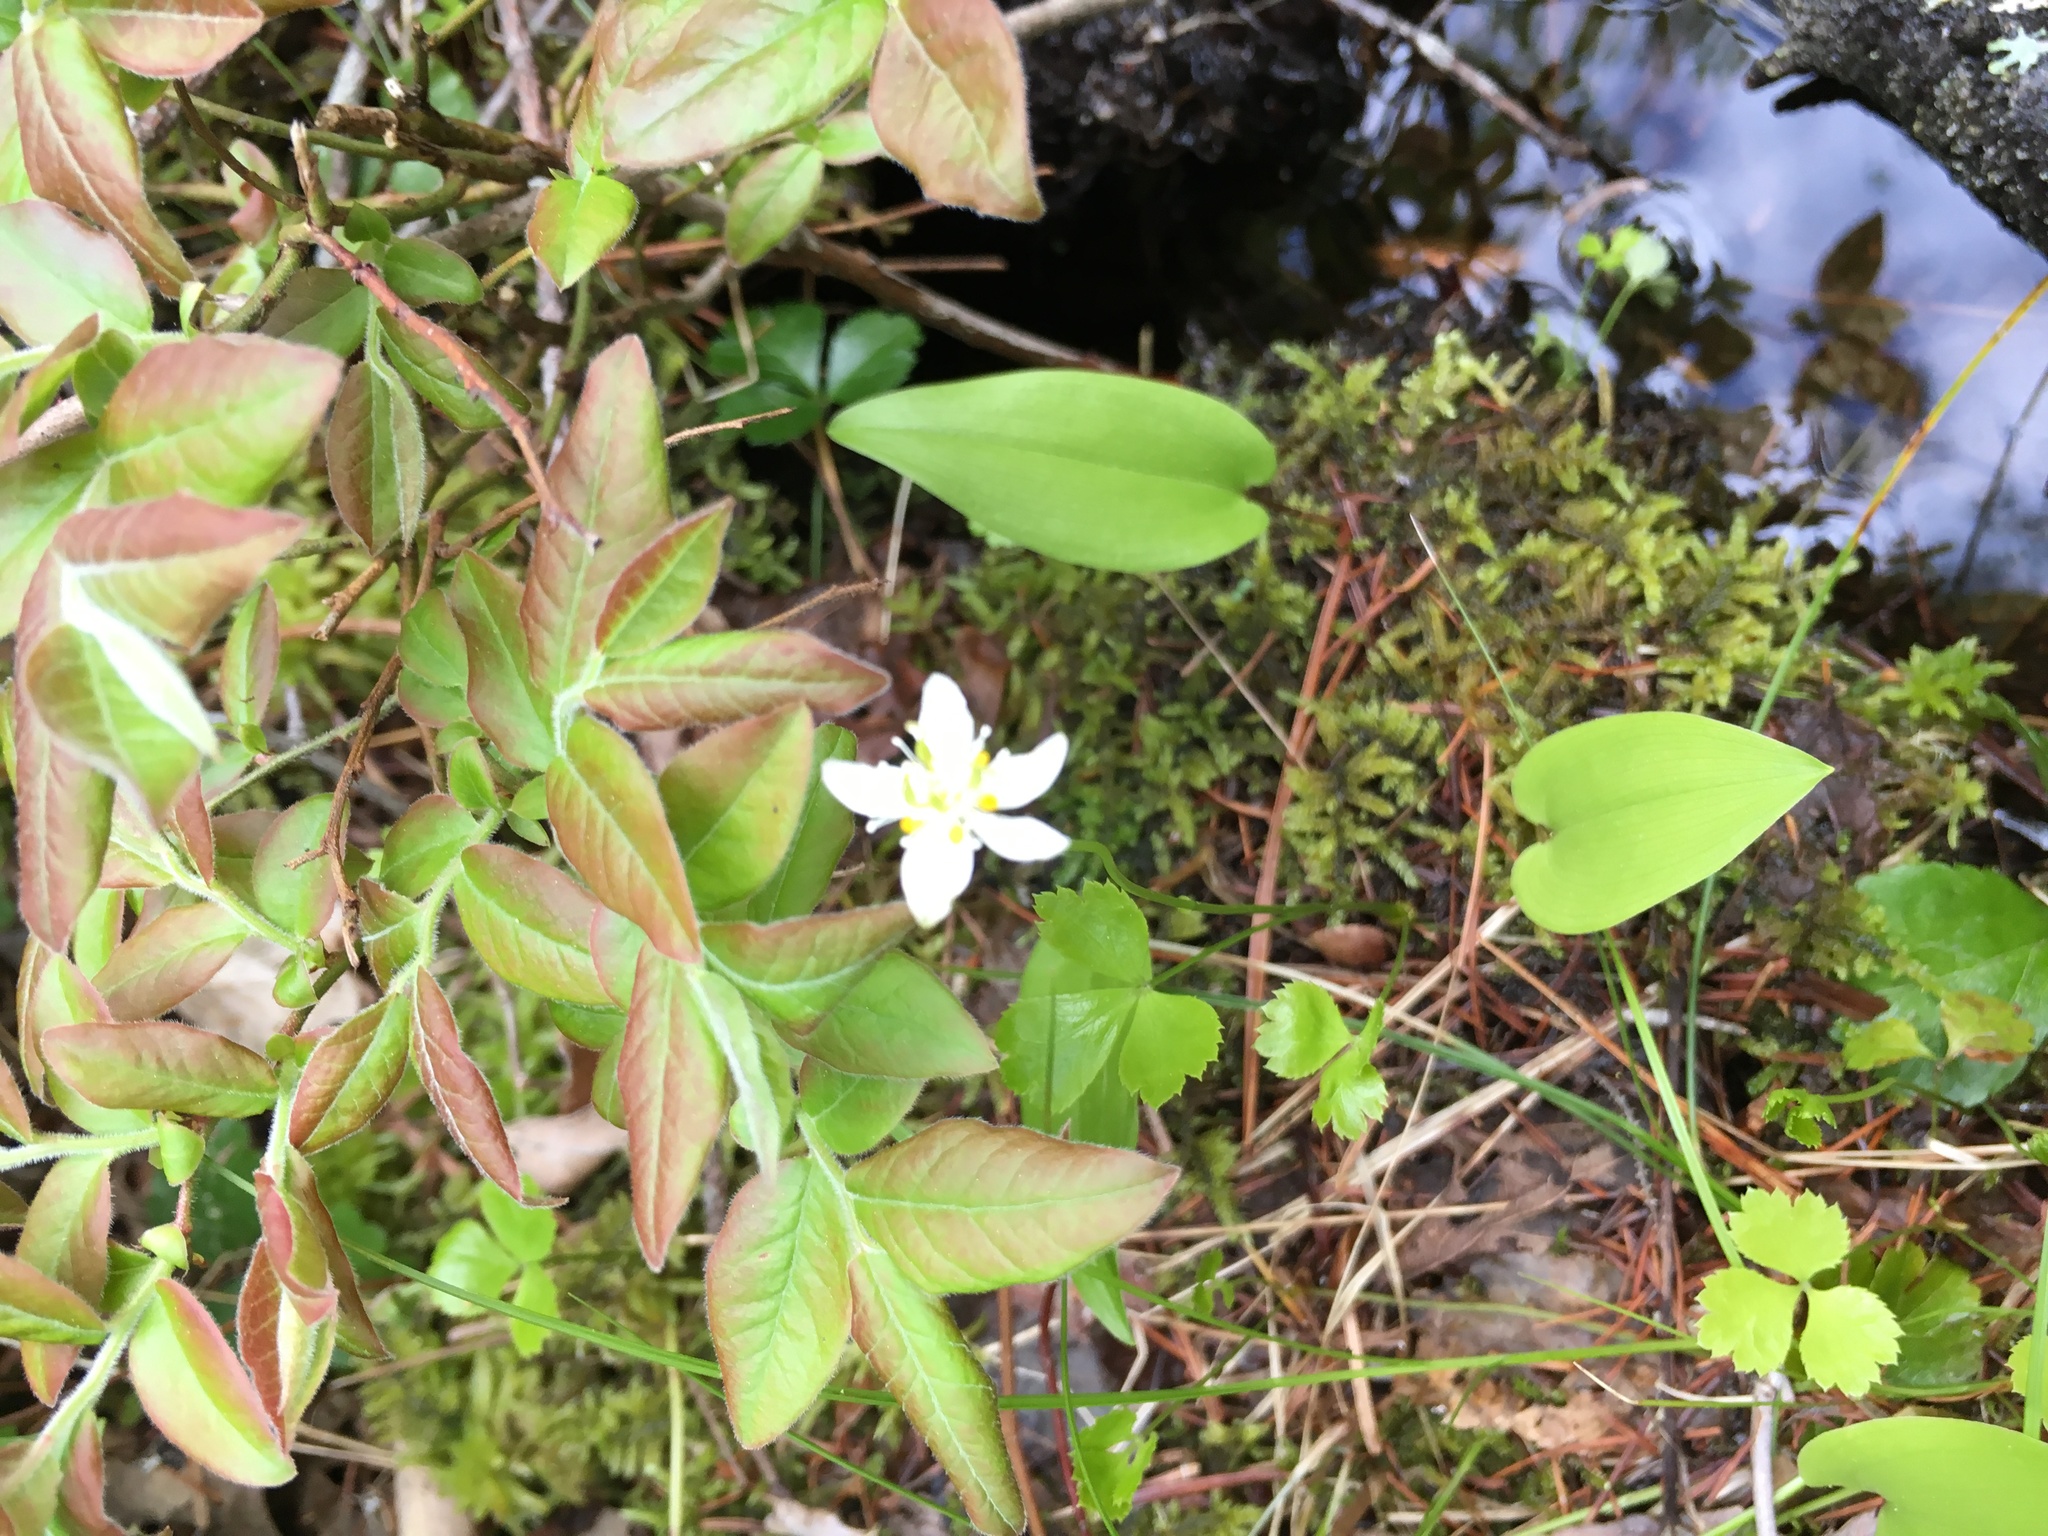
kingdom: Plantae
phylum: Tracheophyta
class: Magnoliopsida
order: Ranunculales
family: Ranunculaceae
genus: Coptis
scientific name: Coptis trifolia
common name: Canker-root
